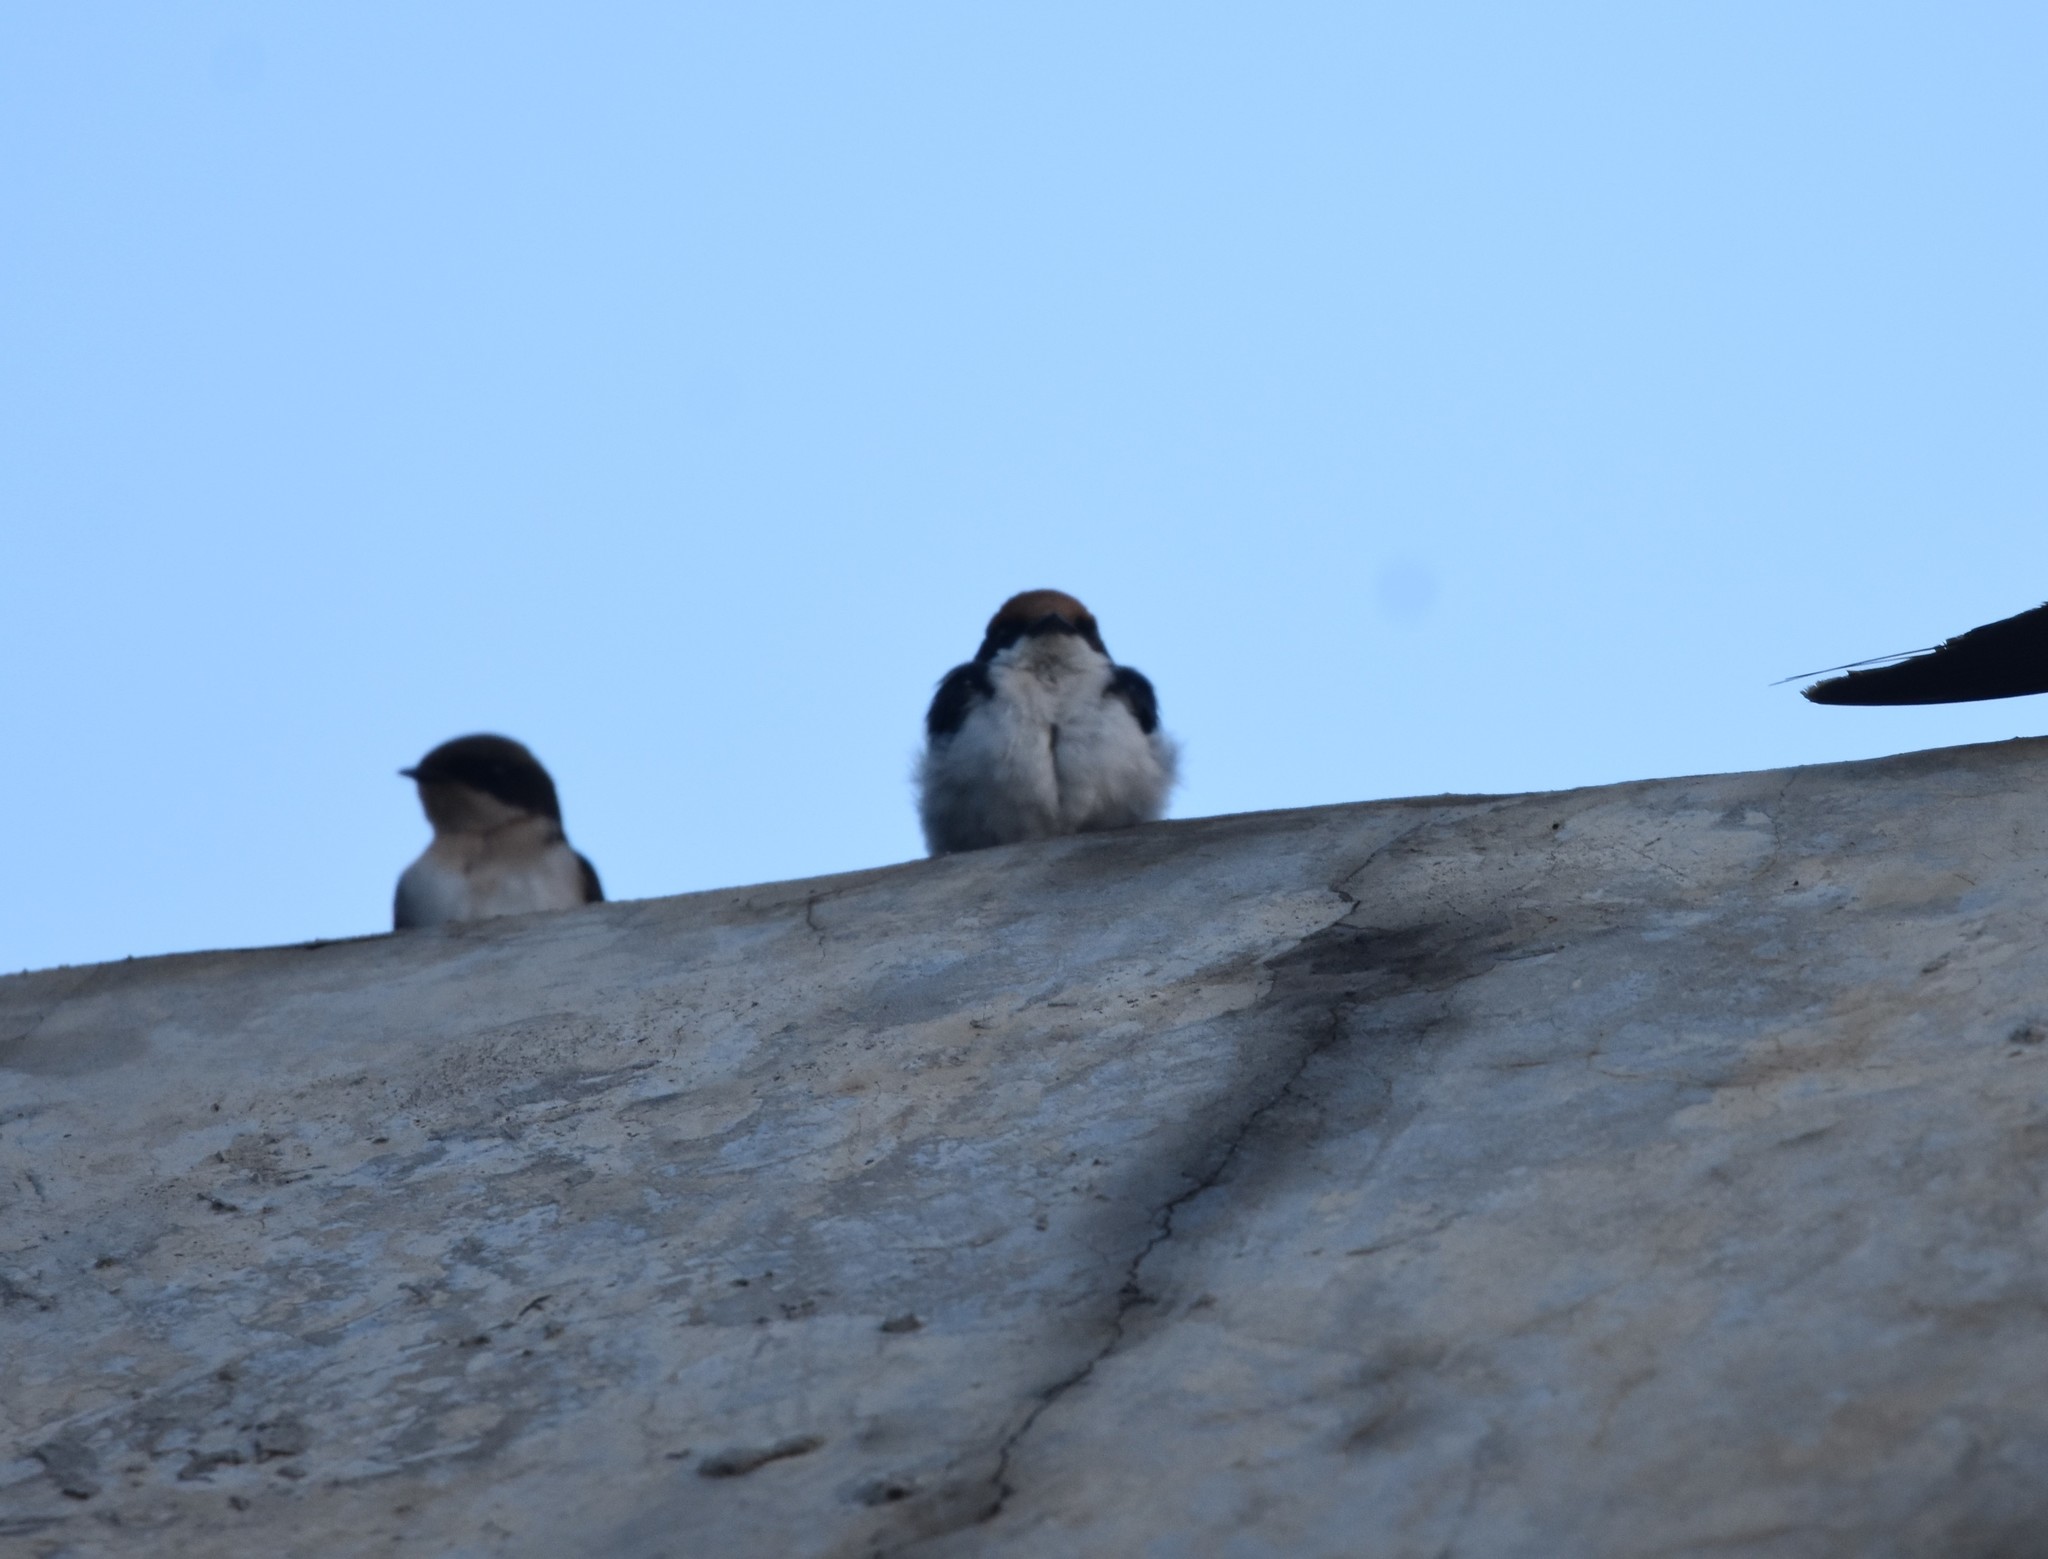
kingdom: Animalia
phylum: Chordata
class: Aves
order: Passeriformes
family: Hirundinidae
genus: Hirundo
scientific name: Hirundo smithii
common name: Wire-tailed swallow
